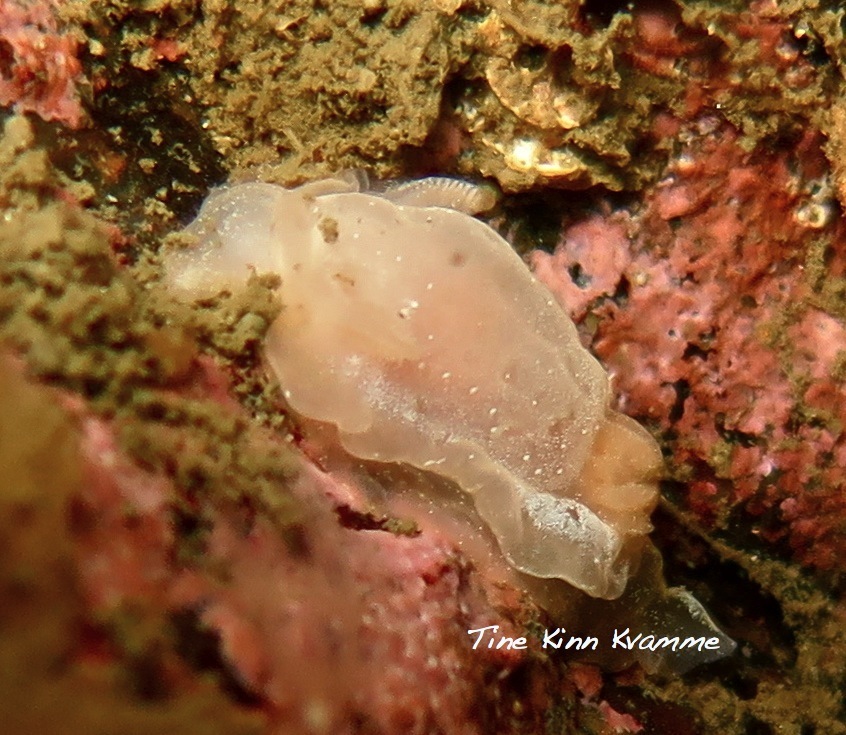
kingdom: Animalia
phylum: Mollusca
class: Gastropoda
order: Nudibranchia
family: Goniodorididae
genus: Okenia
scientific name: Okenia
